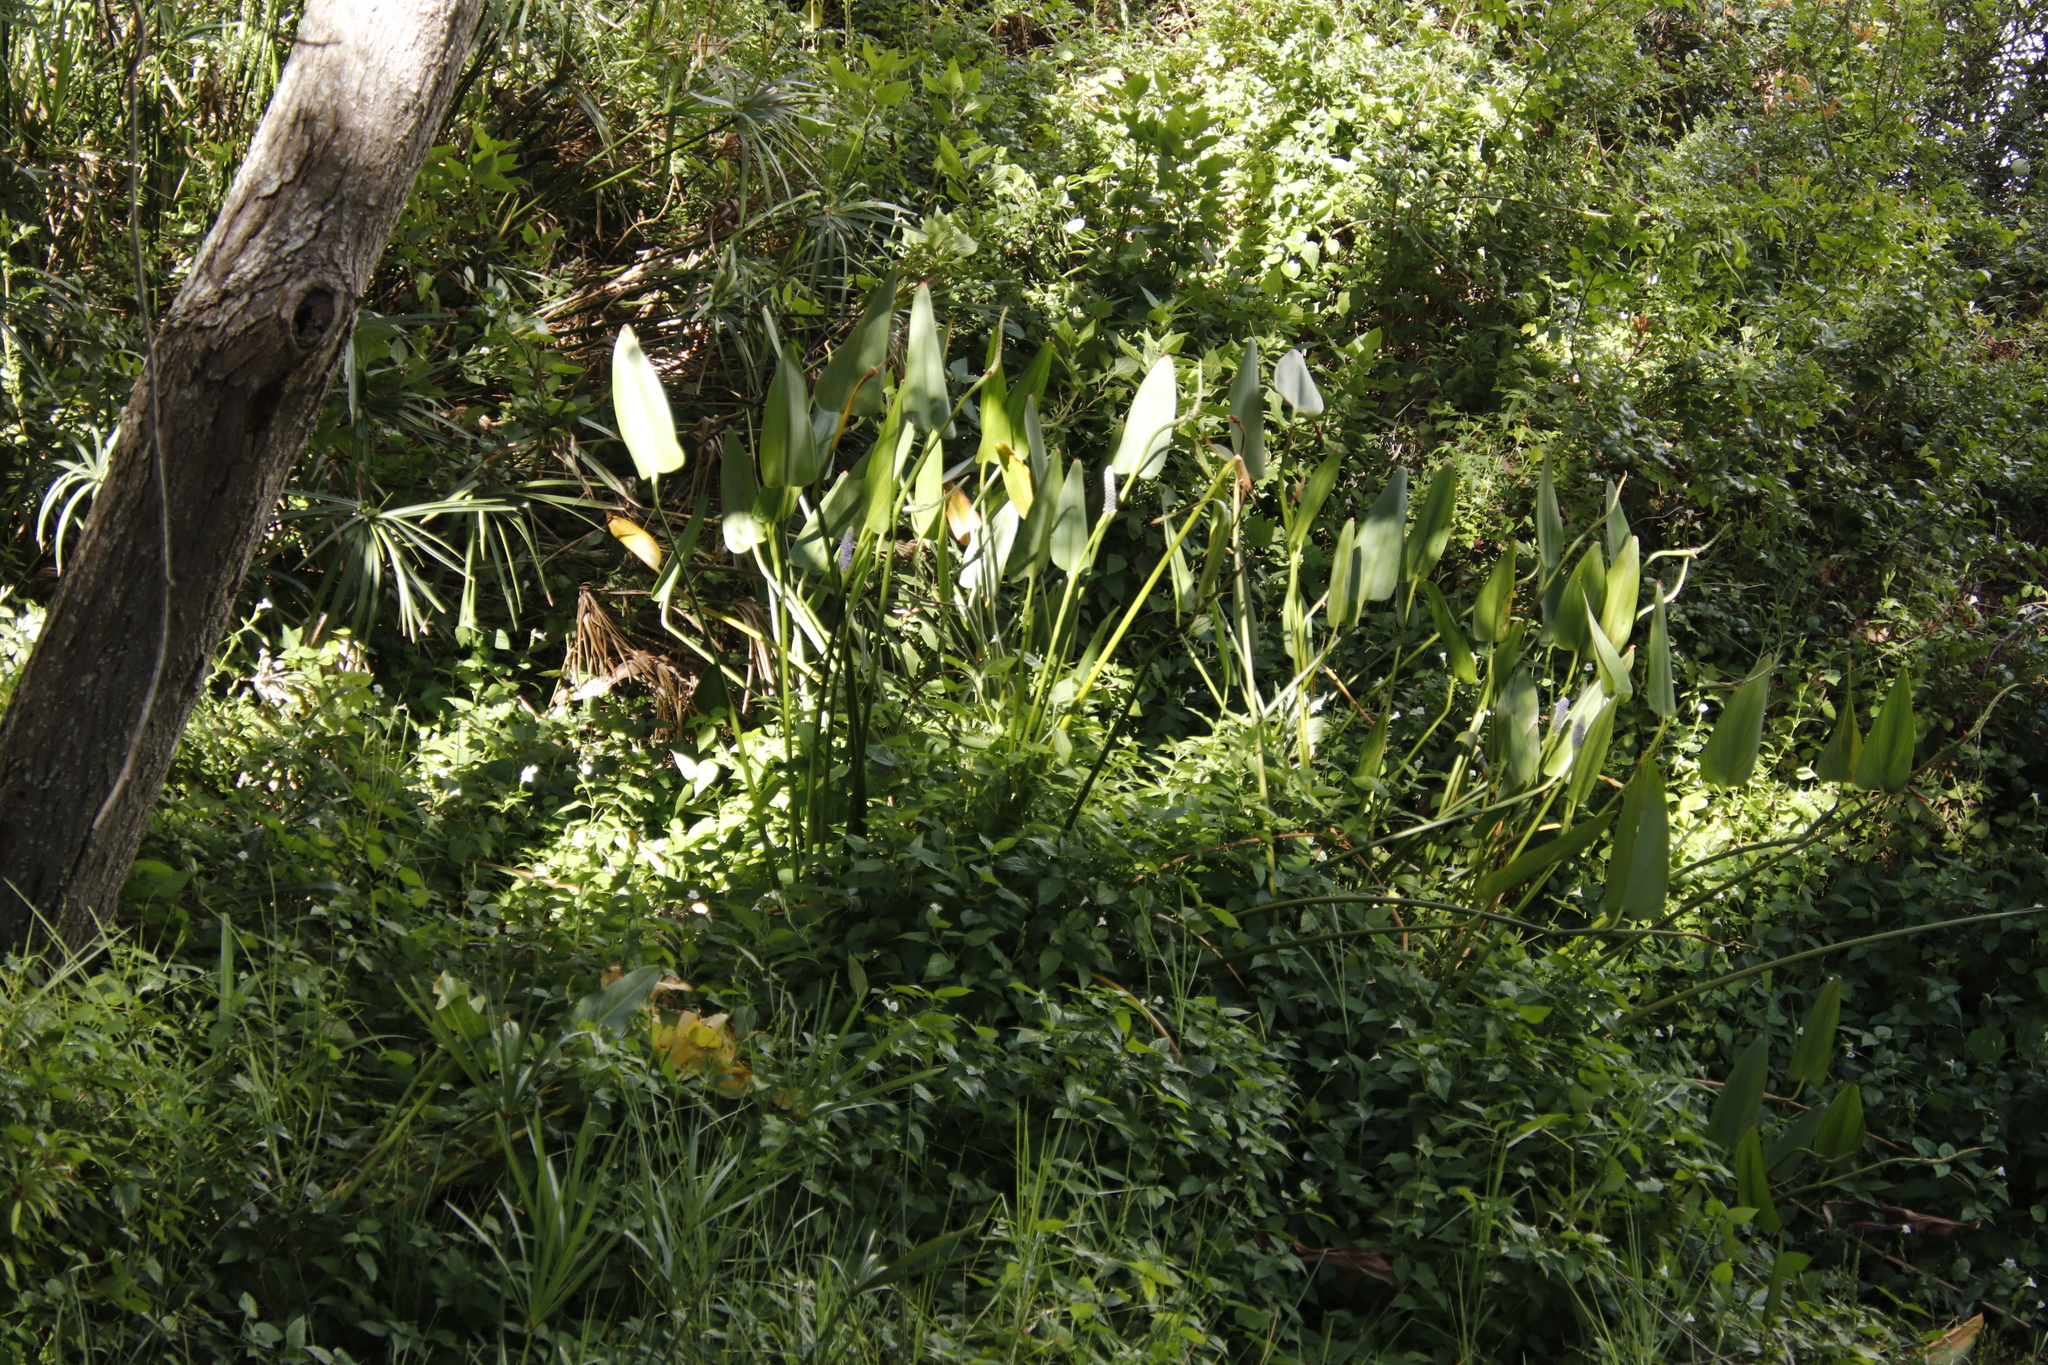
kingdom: Plantae
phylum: Tracheophyta
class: Liliopsida
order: Commelinales
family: Pontederiaceae
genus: Pontederia
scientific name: Pontederia cordata
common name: Pickerelweed
